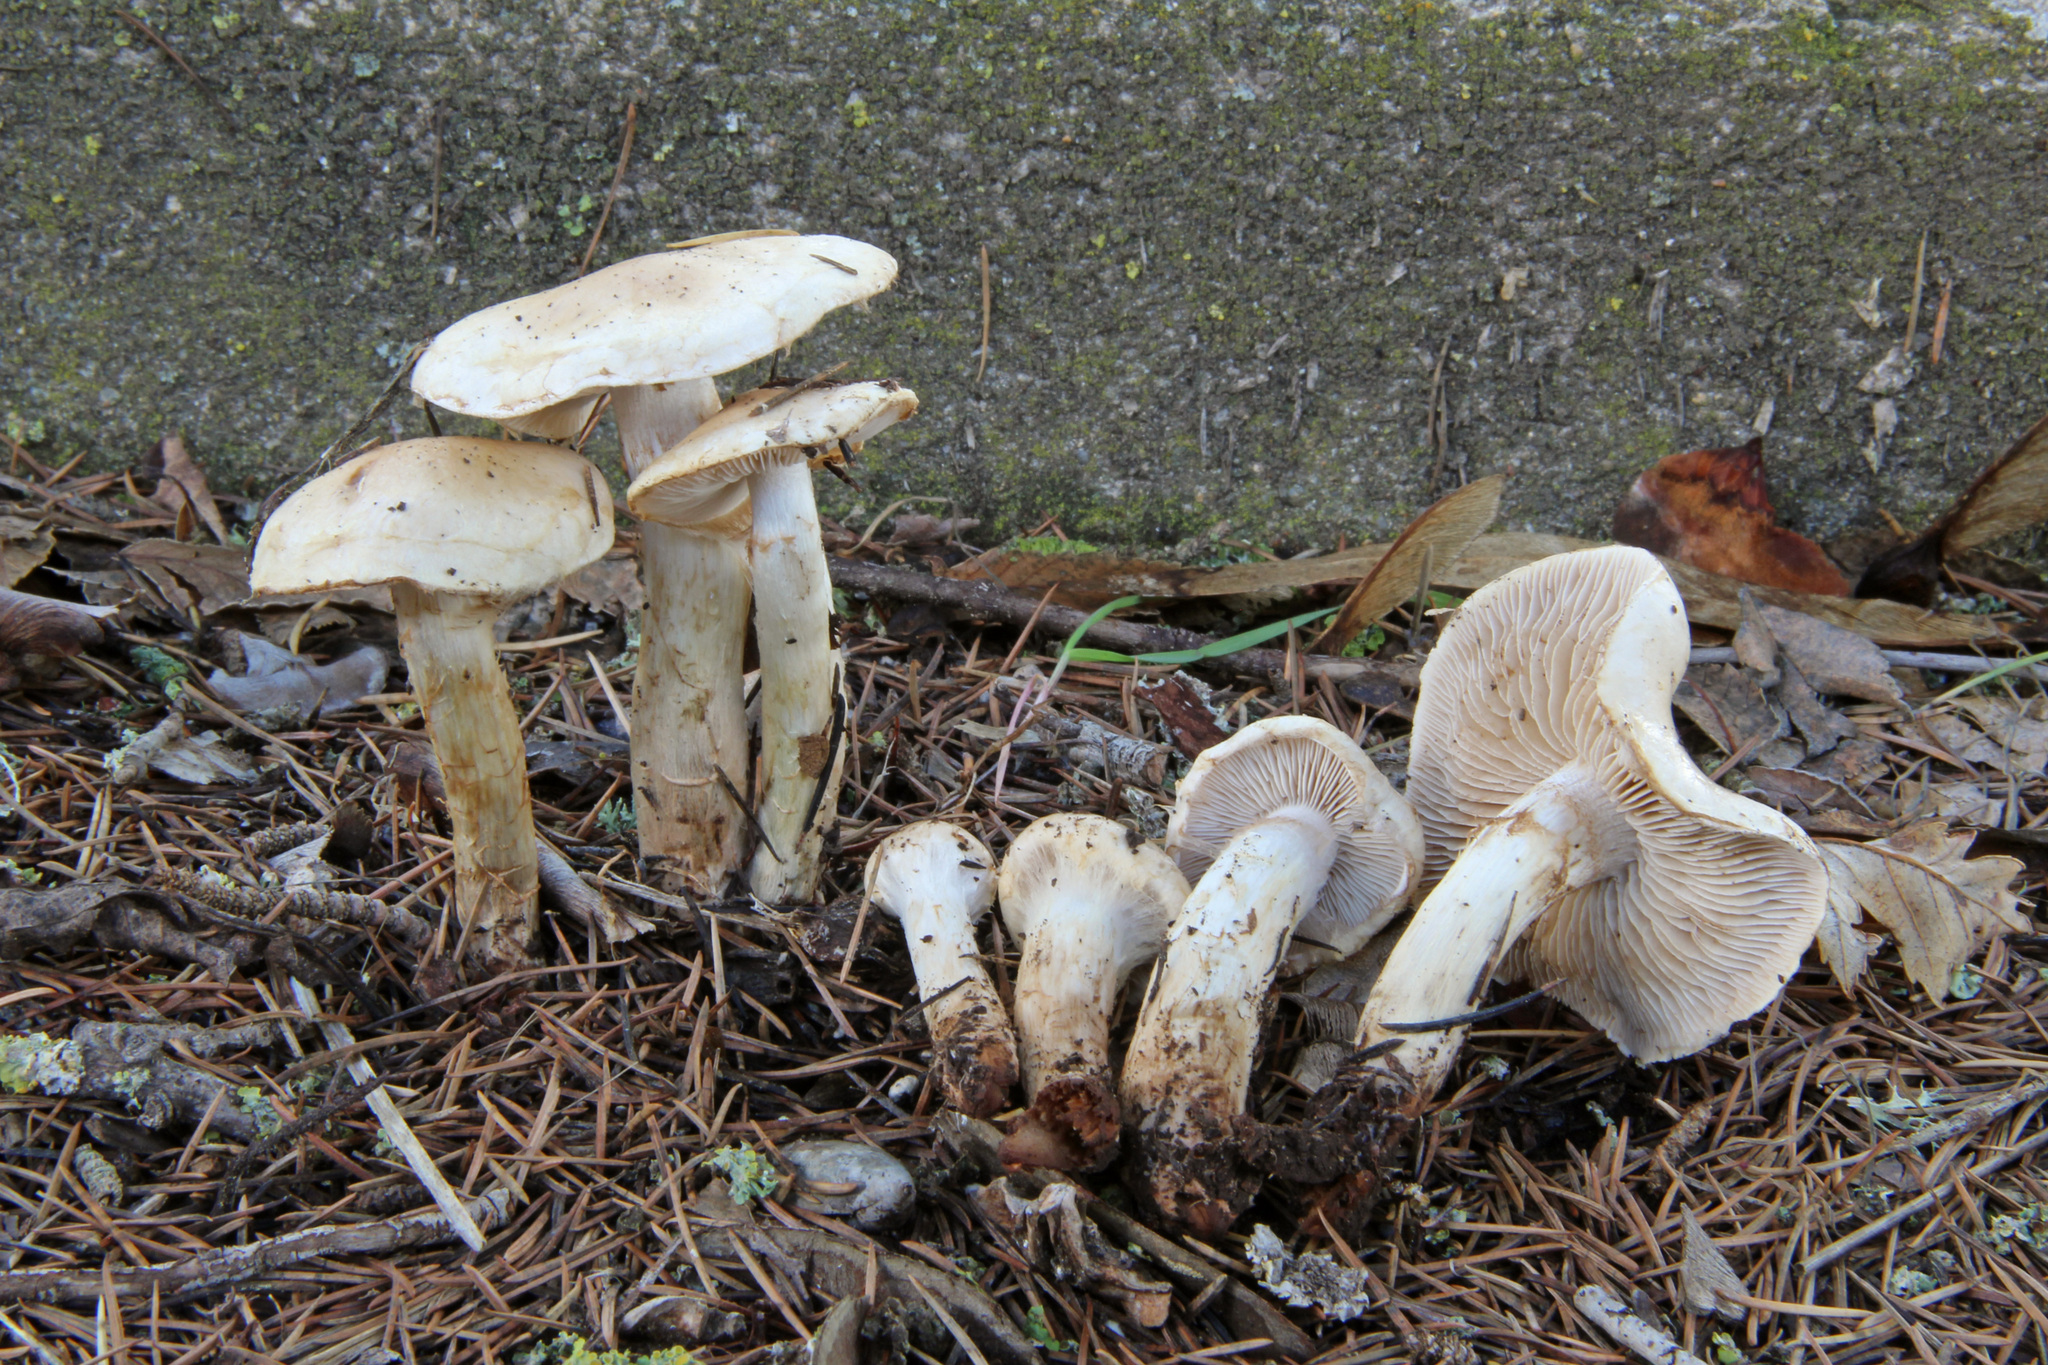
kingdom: Fungi
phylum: Basidiomycota
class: Agaricomycetes
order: Agaricales
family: Hymenogastraceae
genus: Hebeloma
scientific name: Hebeloma leucosarx
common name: Birch poisonpie
